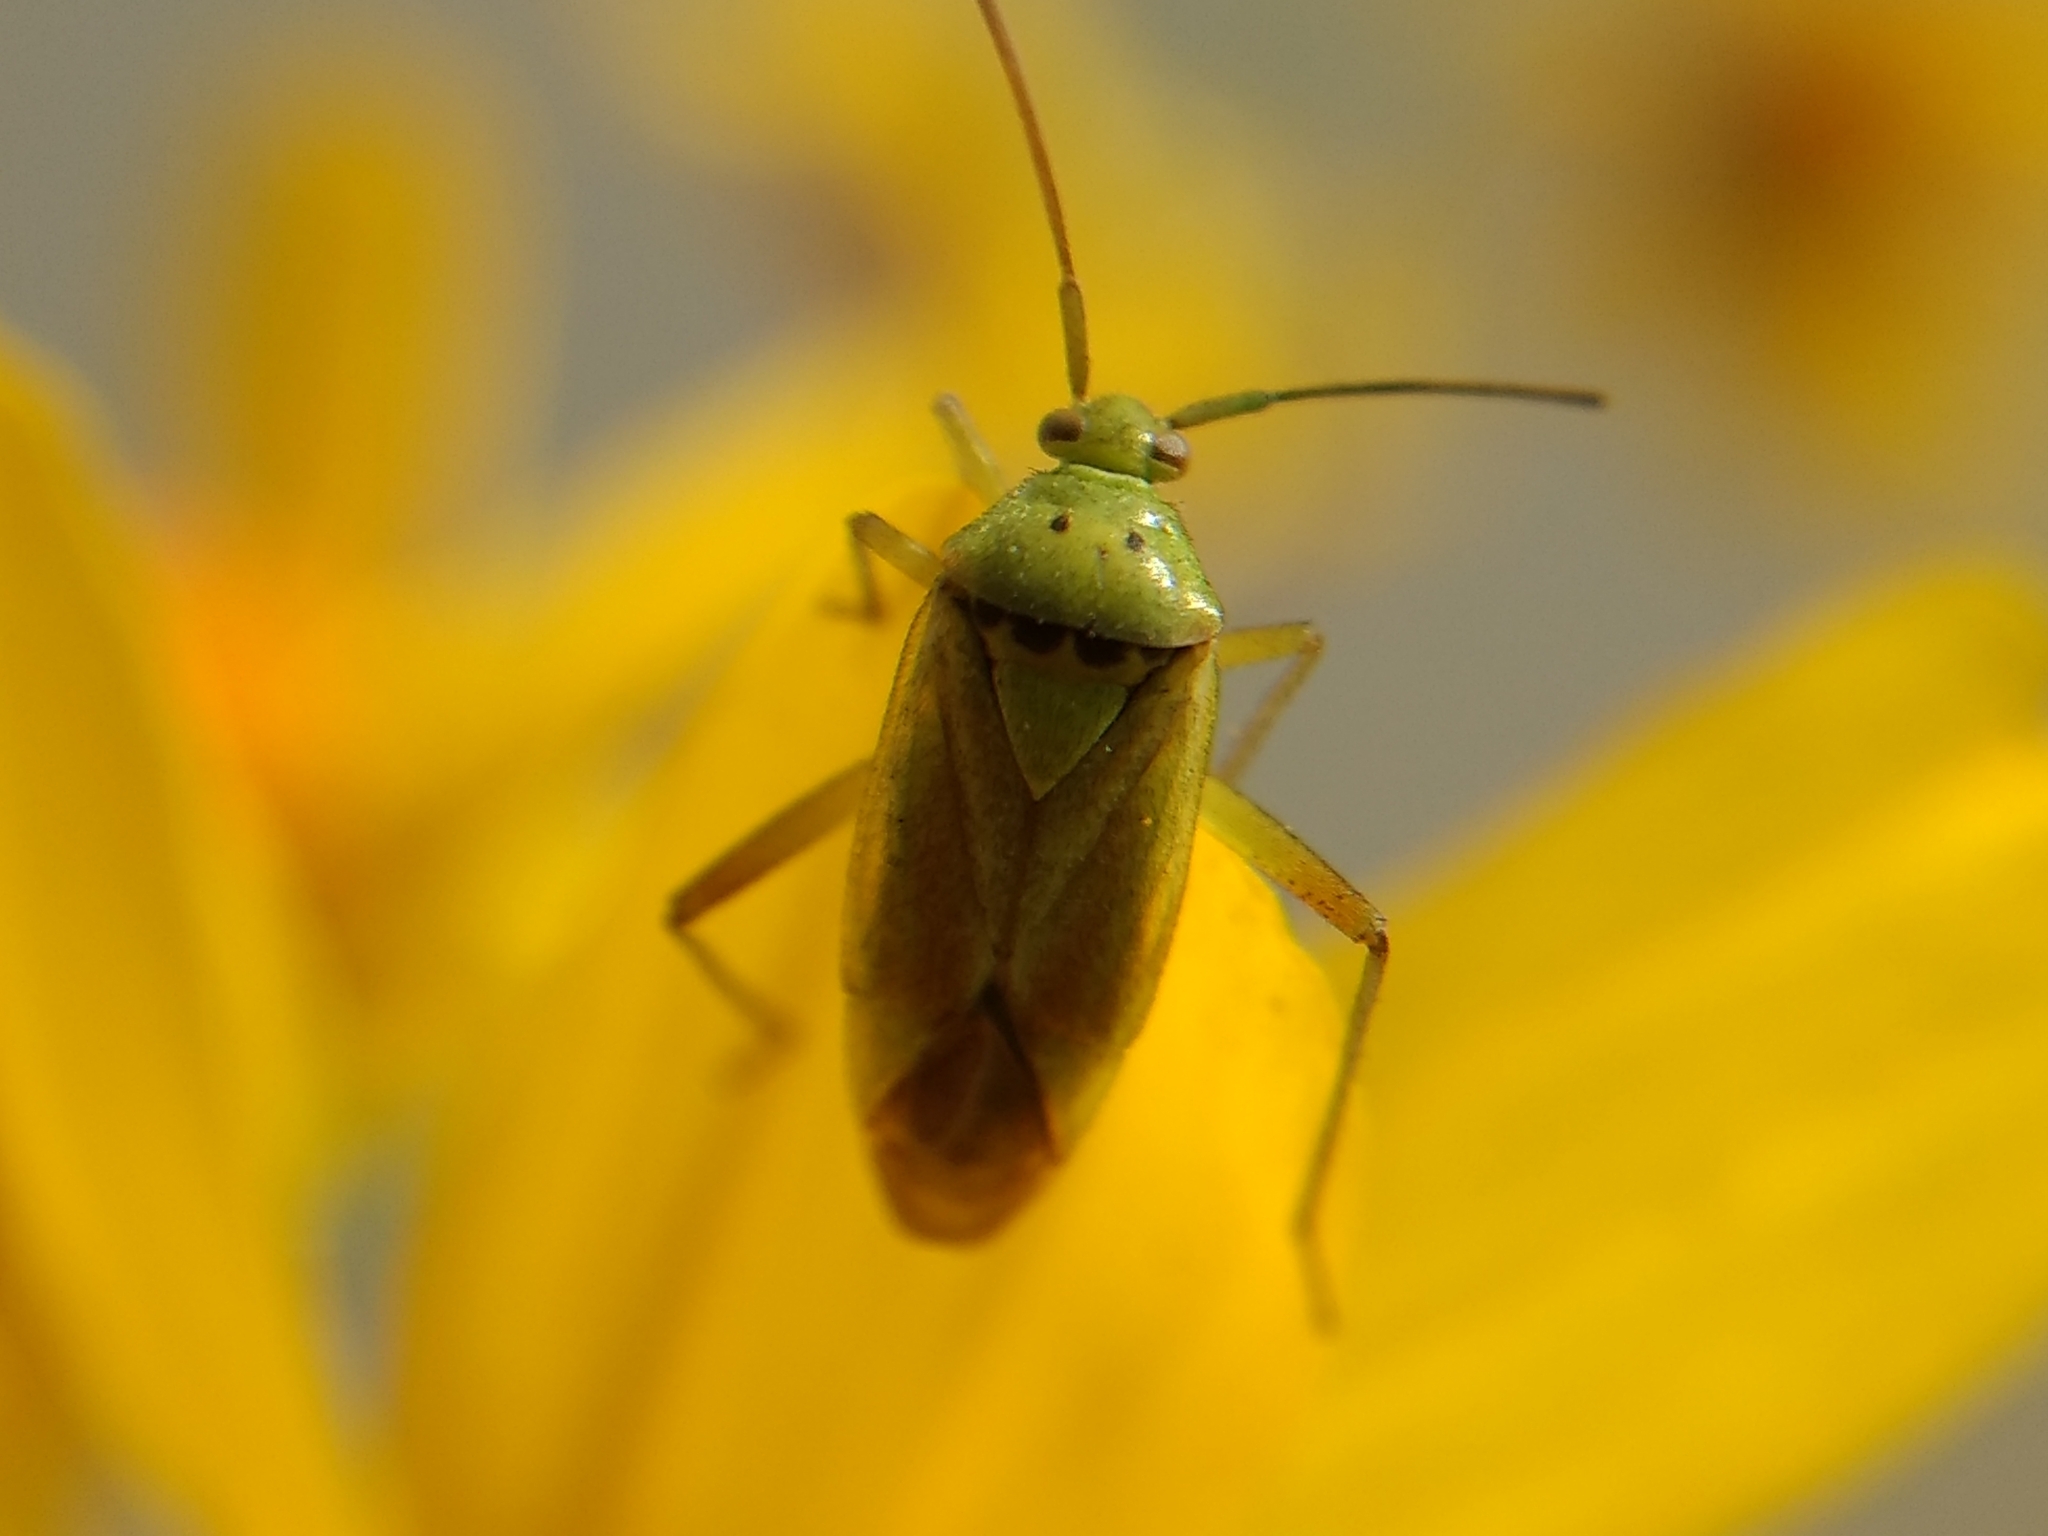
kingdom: Animalia
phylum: Arthropoda
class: Insecta
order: Hemiptera
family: Miridae
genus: Closterotomus
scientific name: Closterotomus norvegicus
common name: Plant bug
